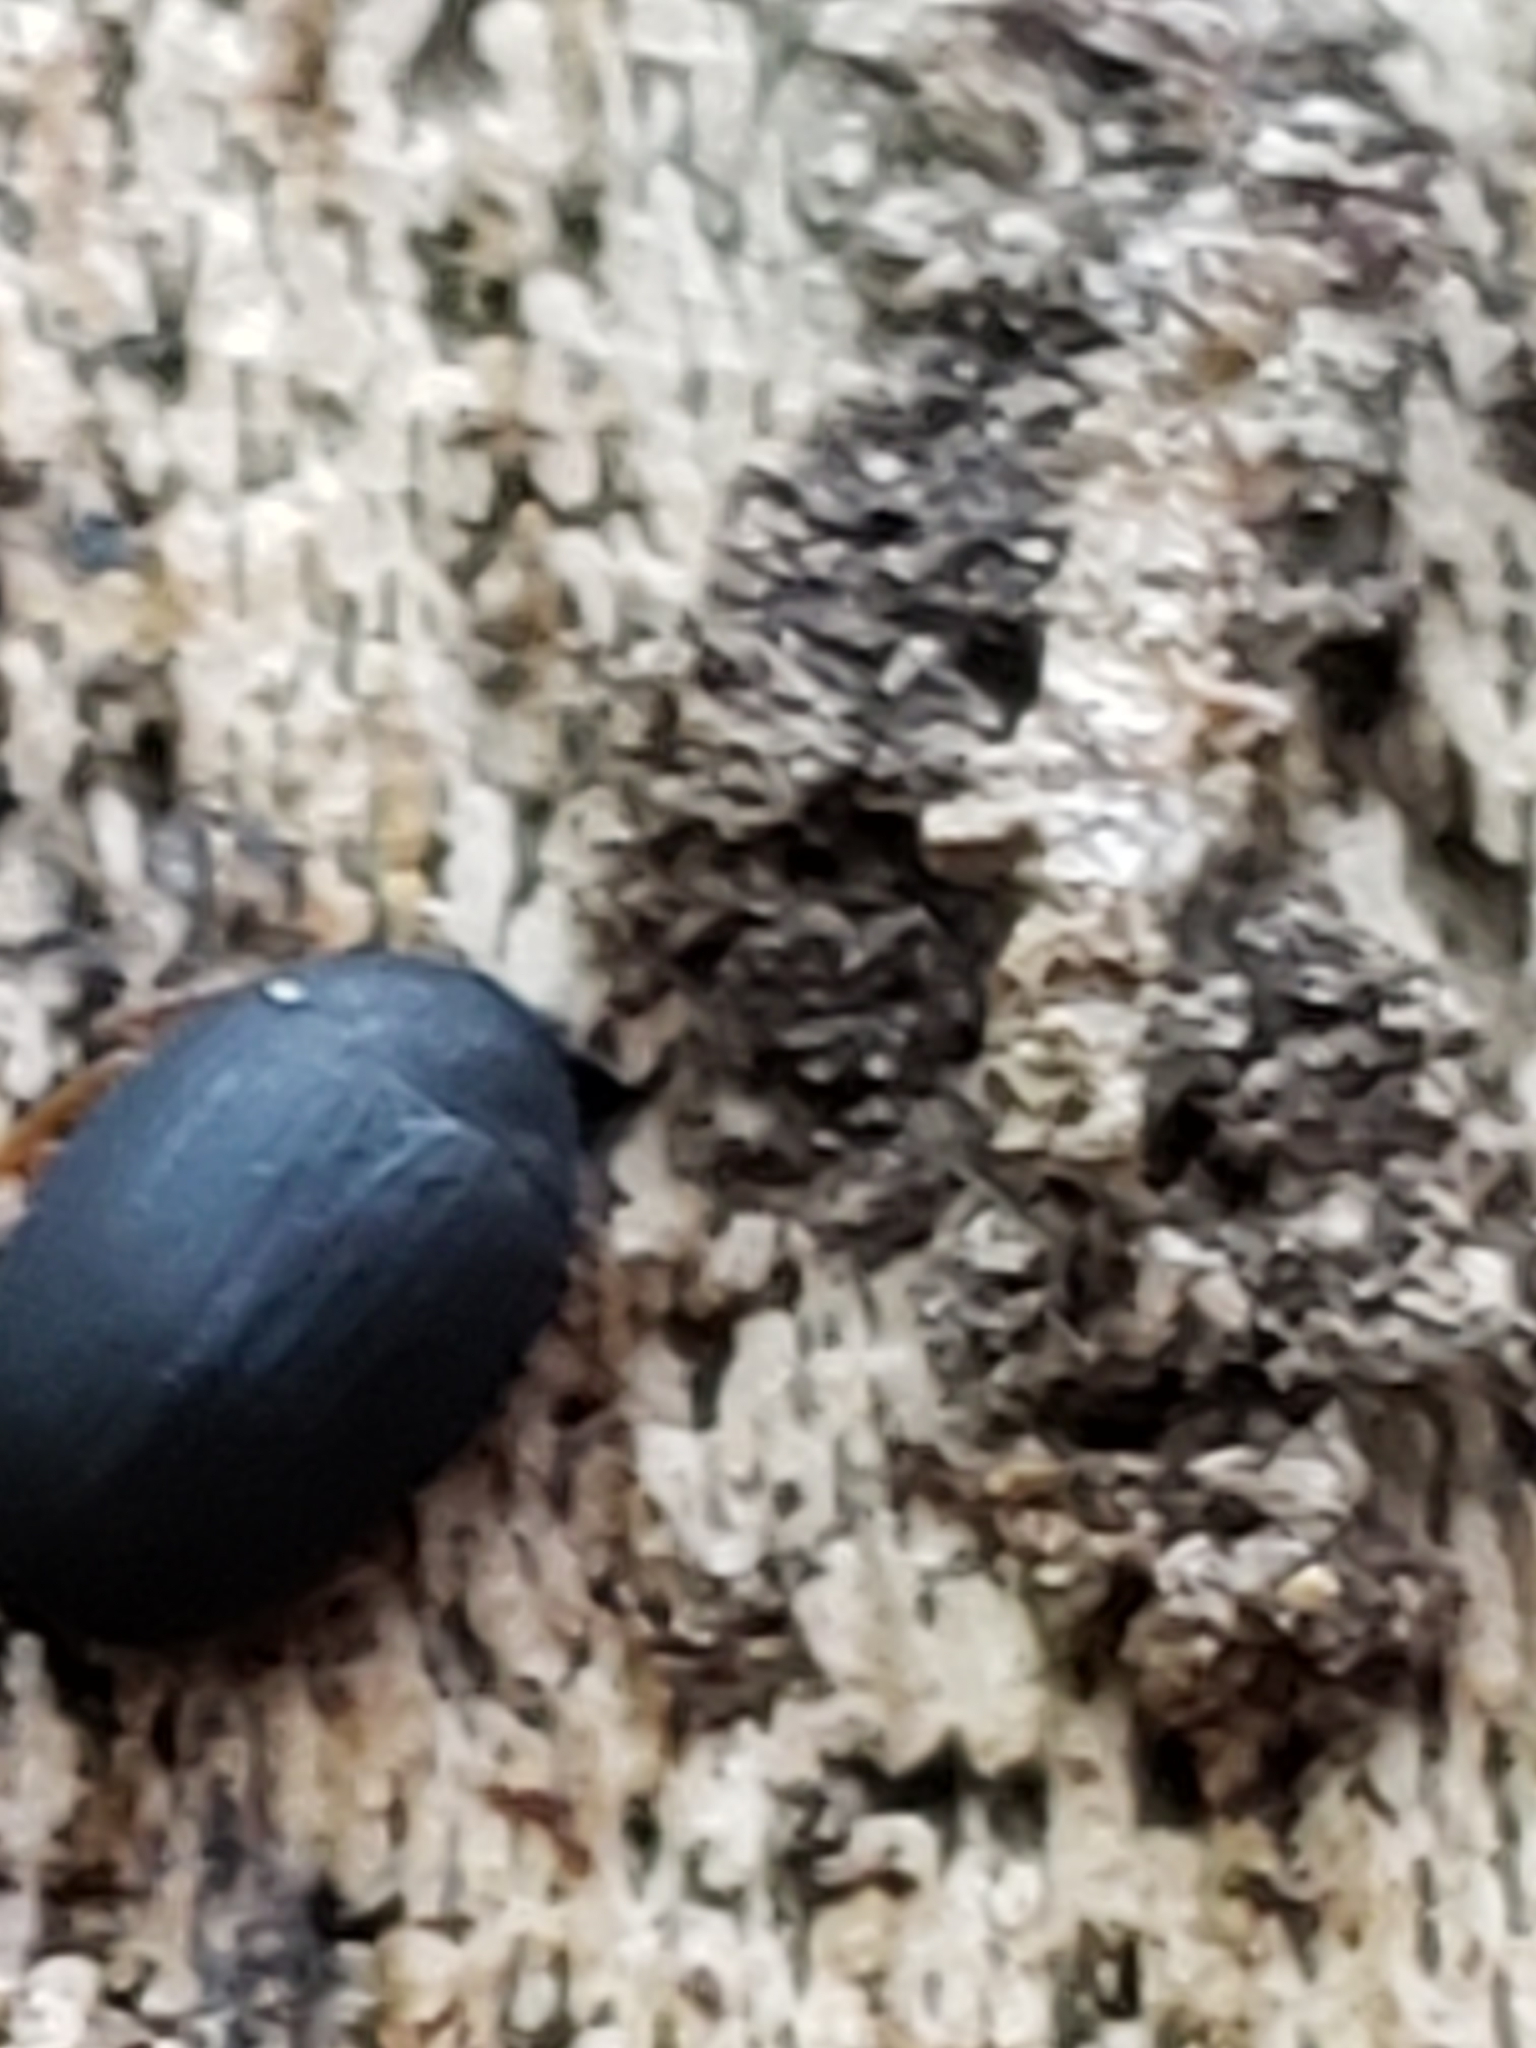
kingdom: Animalia
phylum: Arthropoda
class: Insecta
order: Coleoptera
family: Tenebrionidae
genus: Platydema
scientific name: Platydema ruficornis
